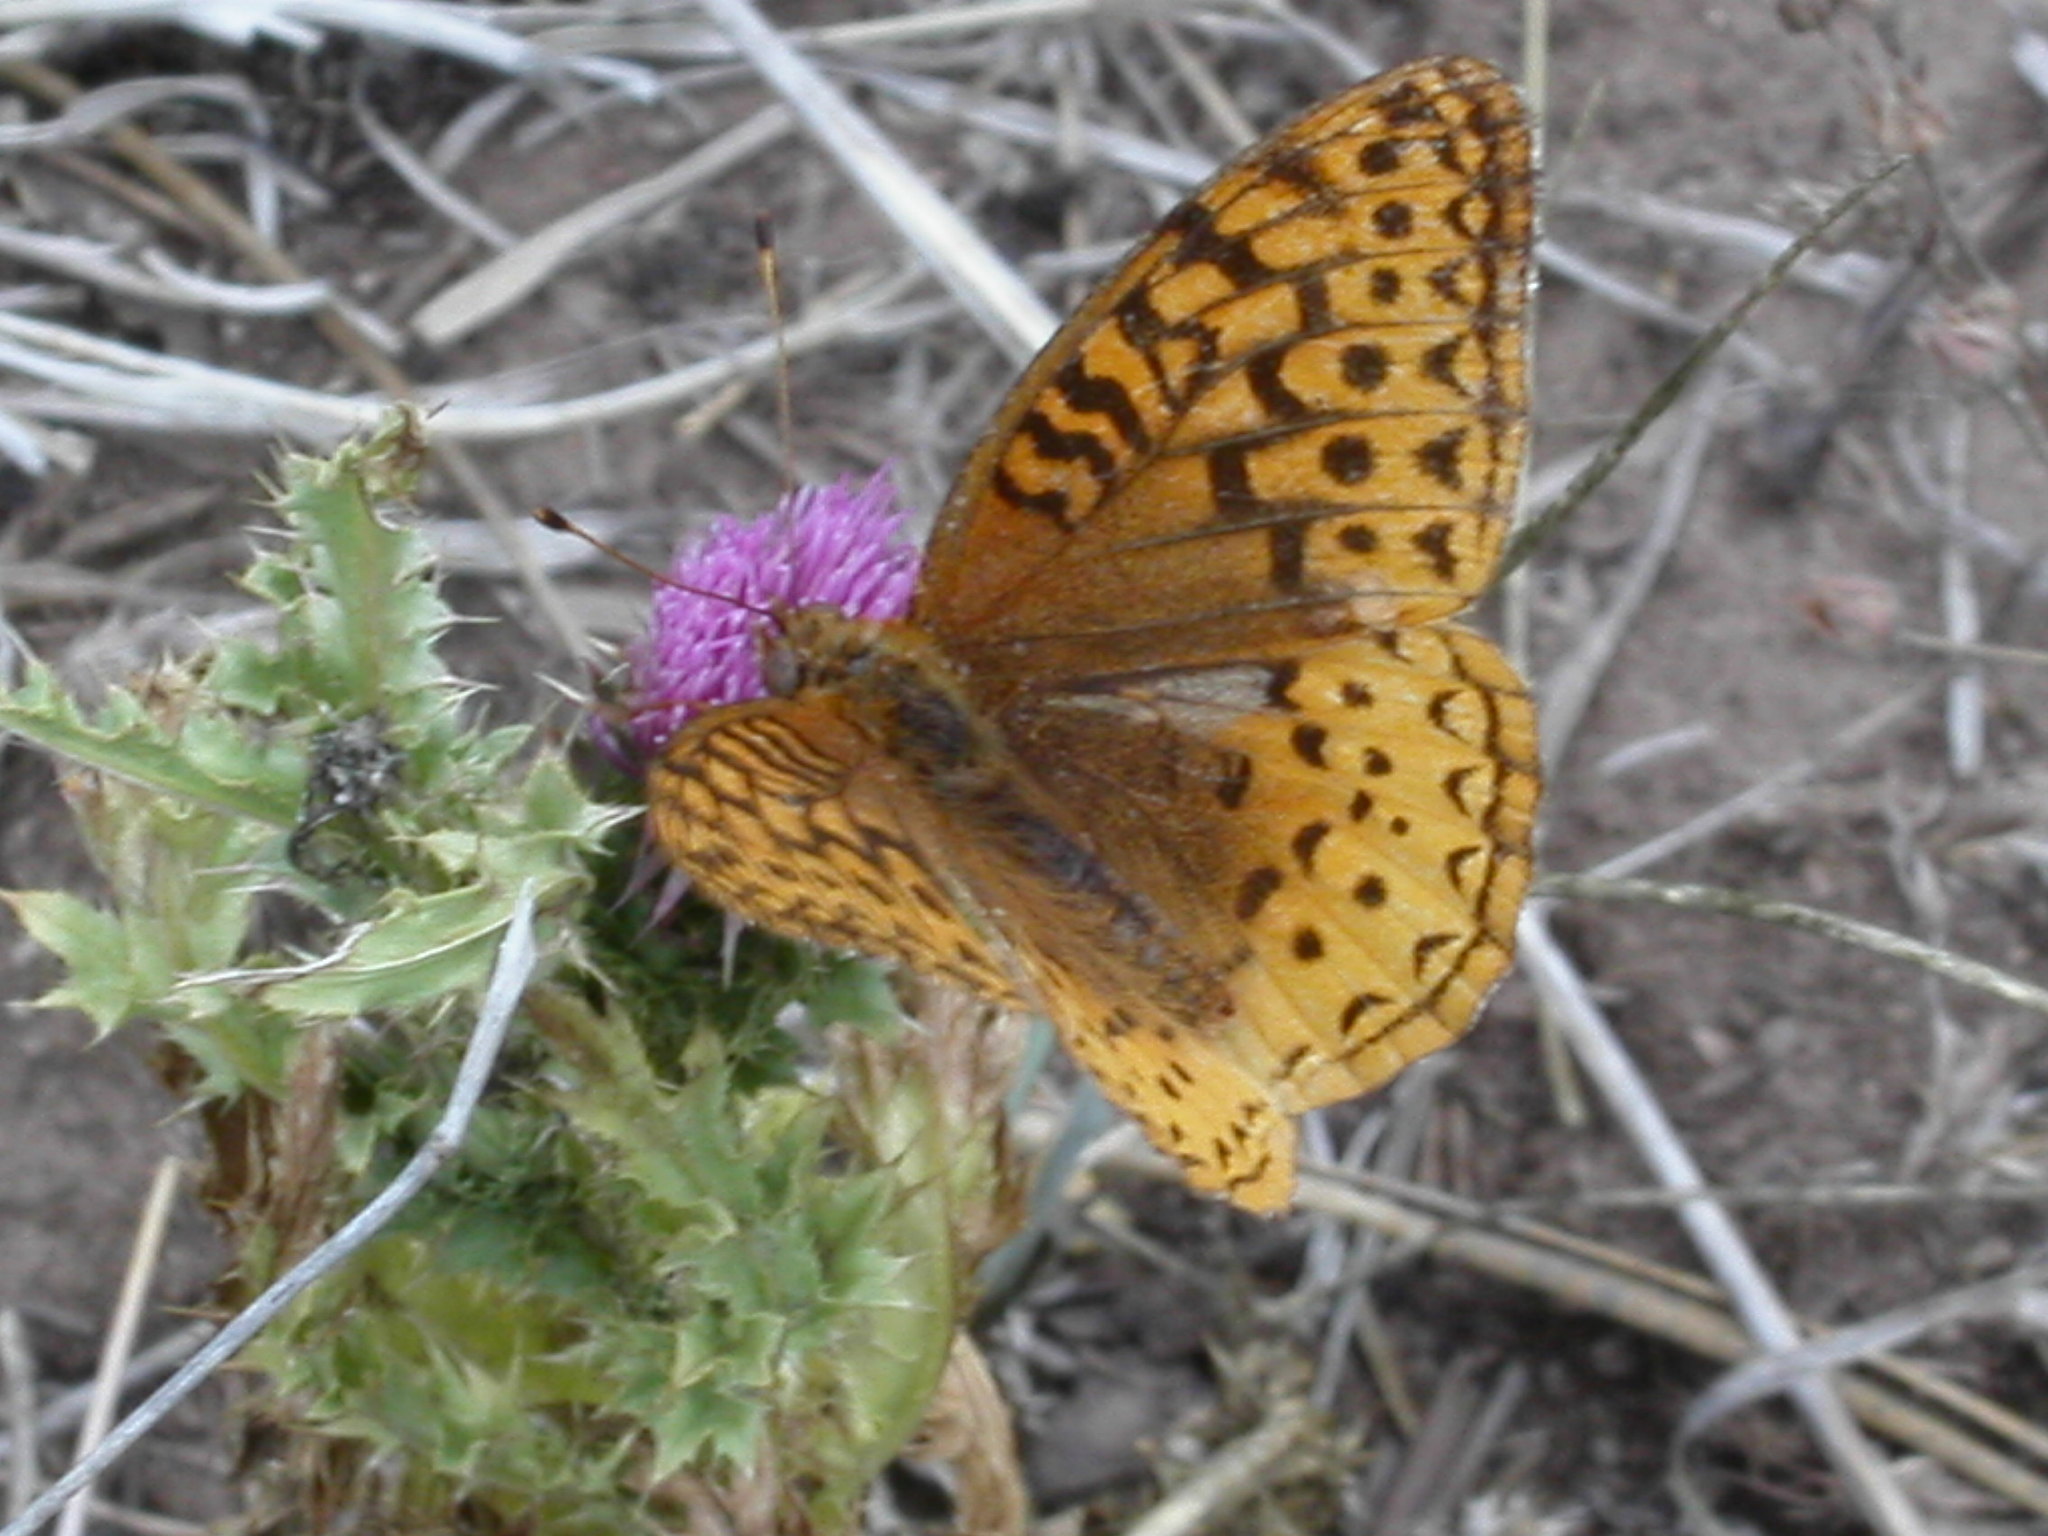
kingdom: Animalia
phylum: Arthropoda
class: Insecta
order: Lepidoptera
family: Nymphalidae
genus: Speyeria
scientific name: Speyeria cybele
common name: Great spangled fritillary
